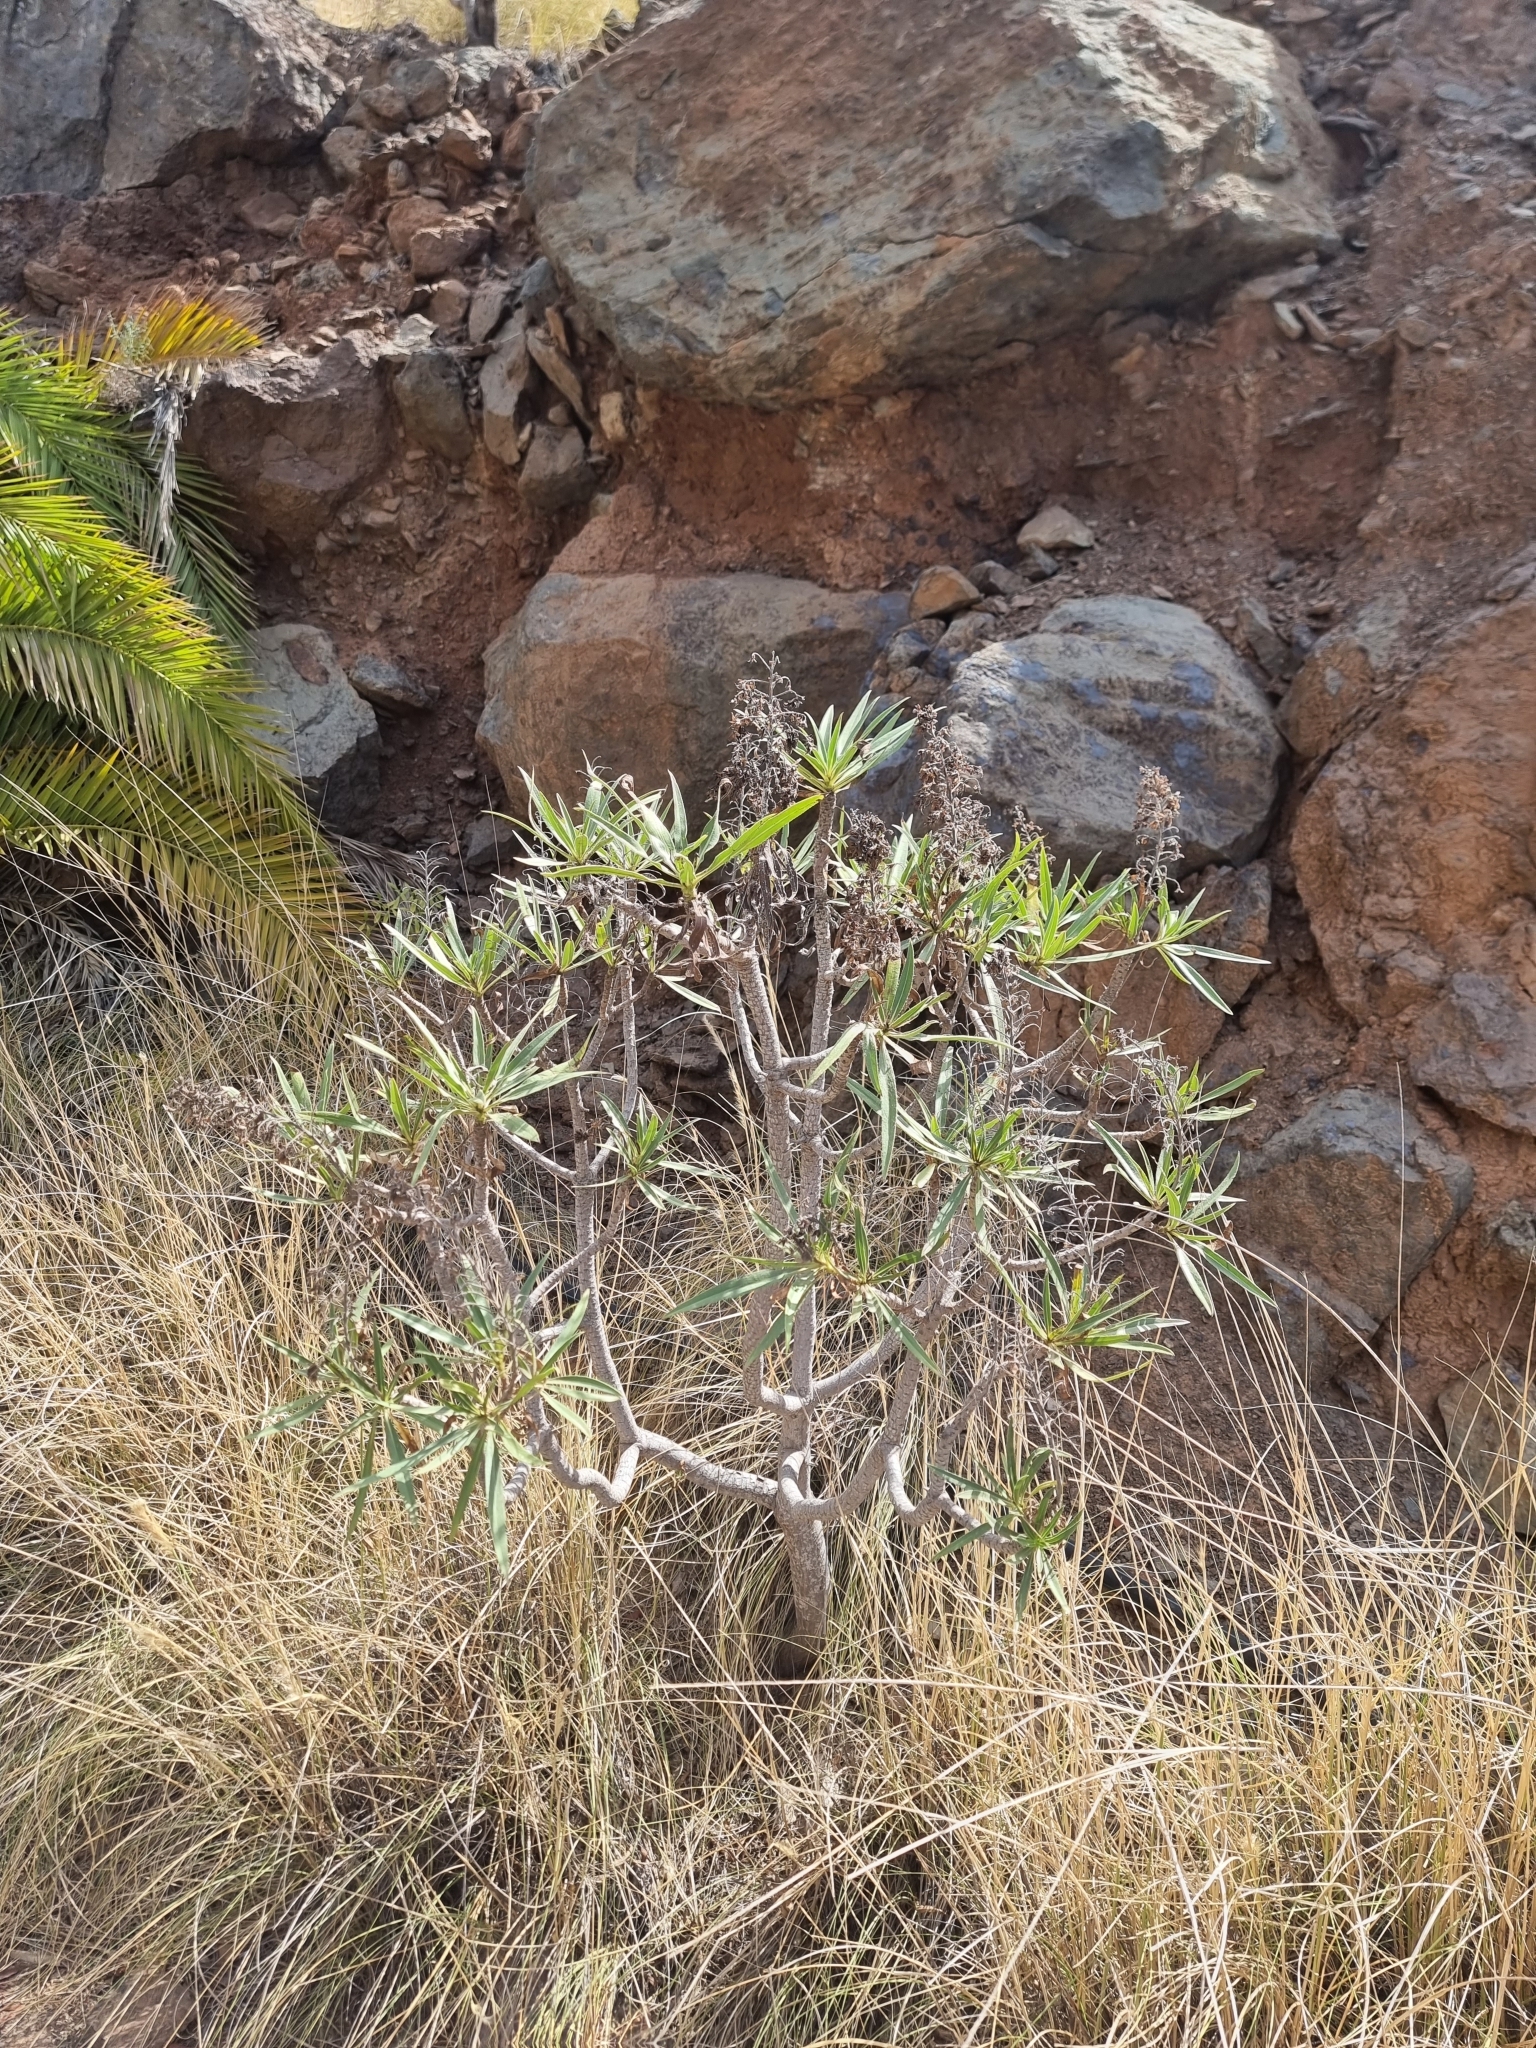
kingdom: Plantae
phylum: Tracheophyta
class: Magnoliopsida
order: Boraginales
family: Boraginaceae
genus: Echium
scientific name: Echium onosmifolium
